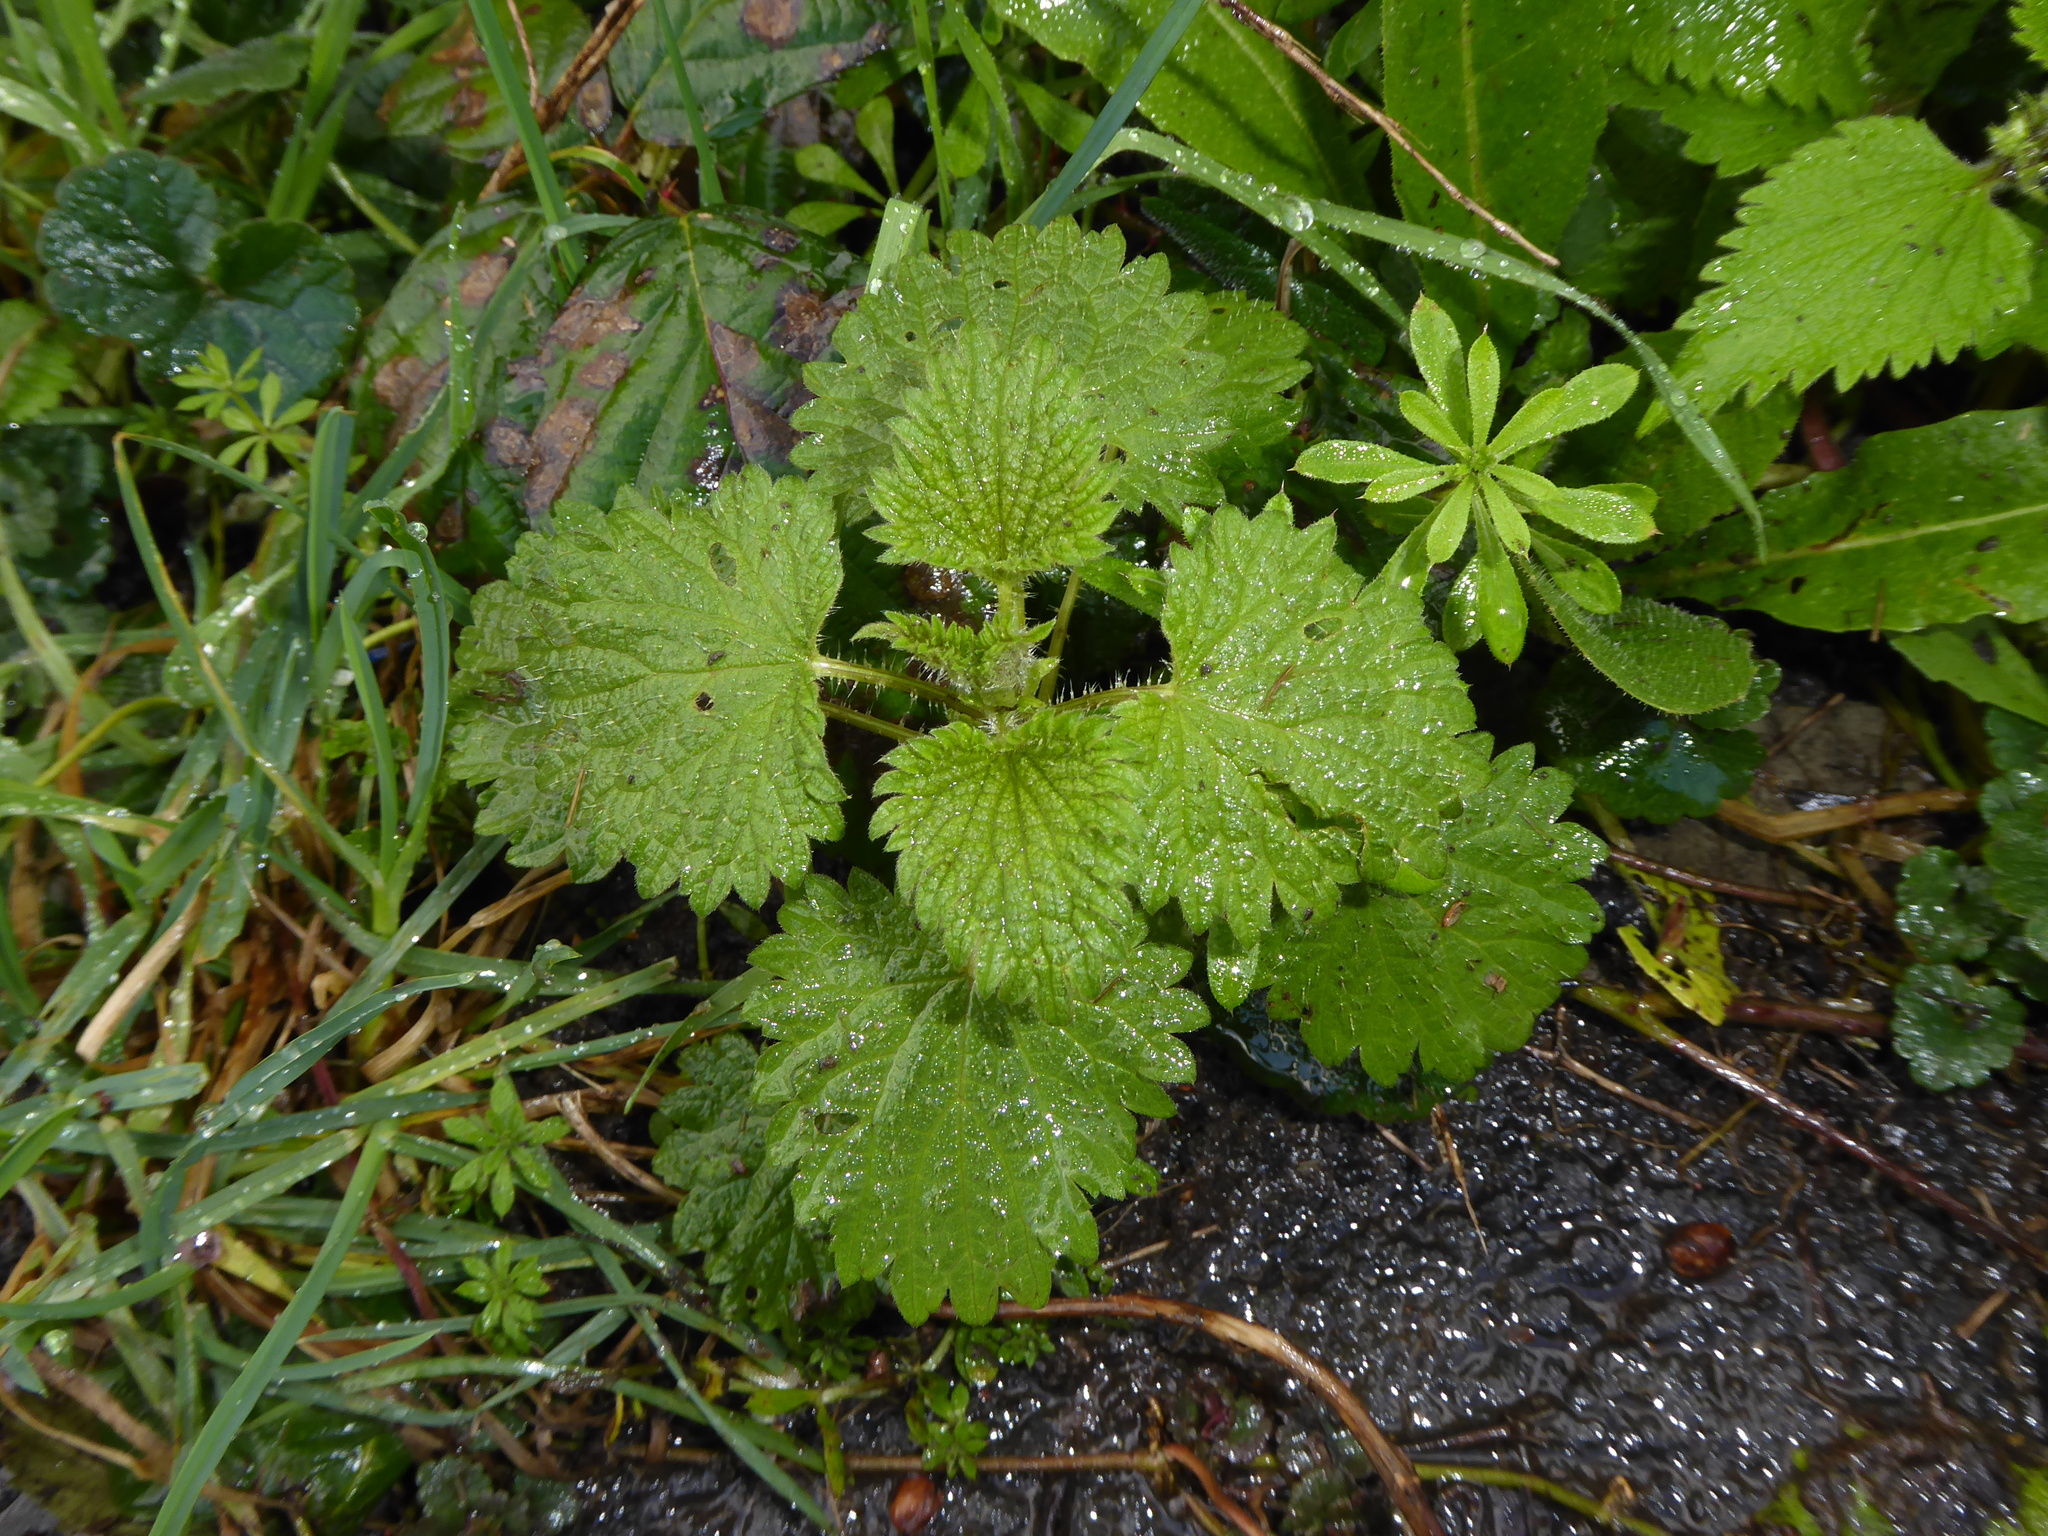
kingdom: Plantae
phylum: Tracheophyta
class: Magnoliopsida
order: Rosales
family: Urticaceae
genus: Urtica
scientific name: Urtica dioica
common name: Common nettle
